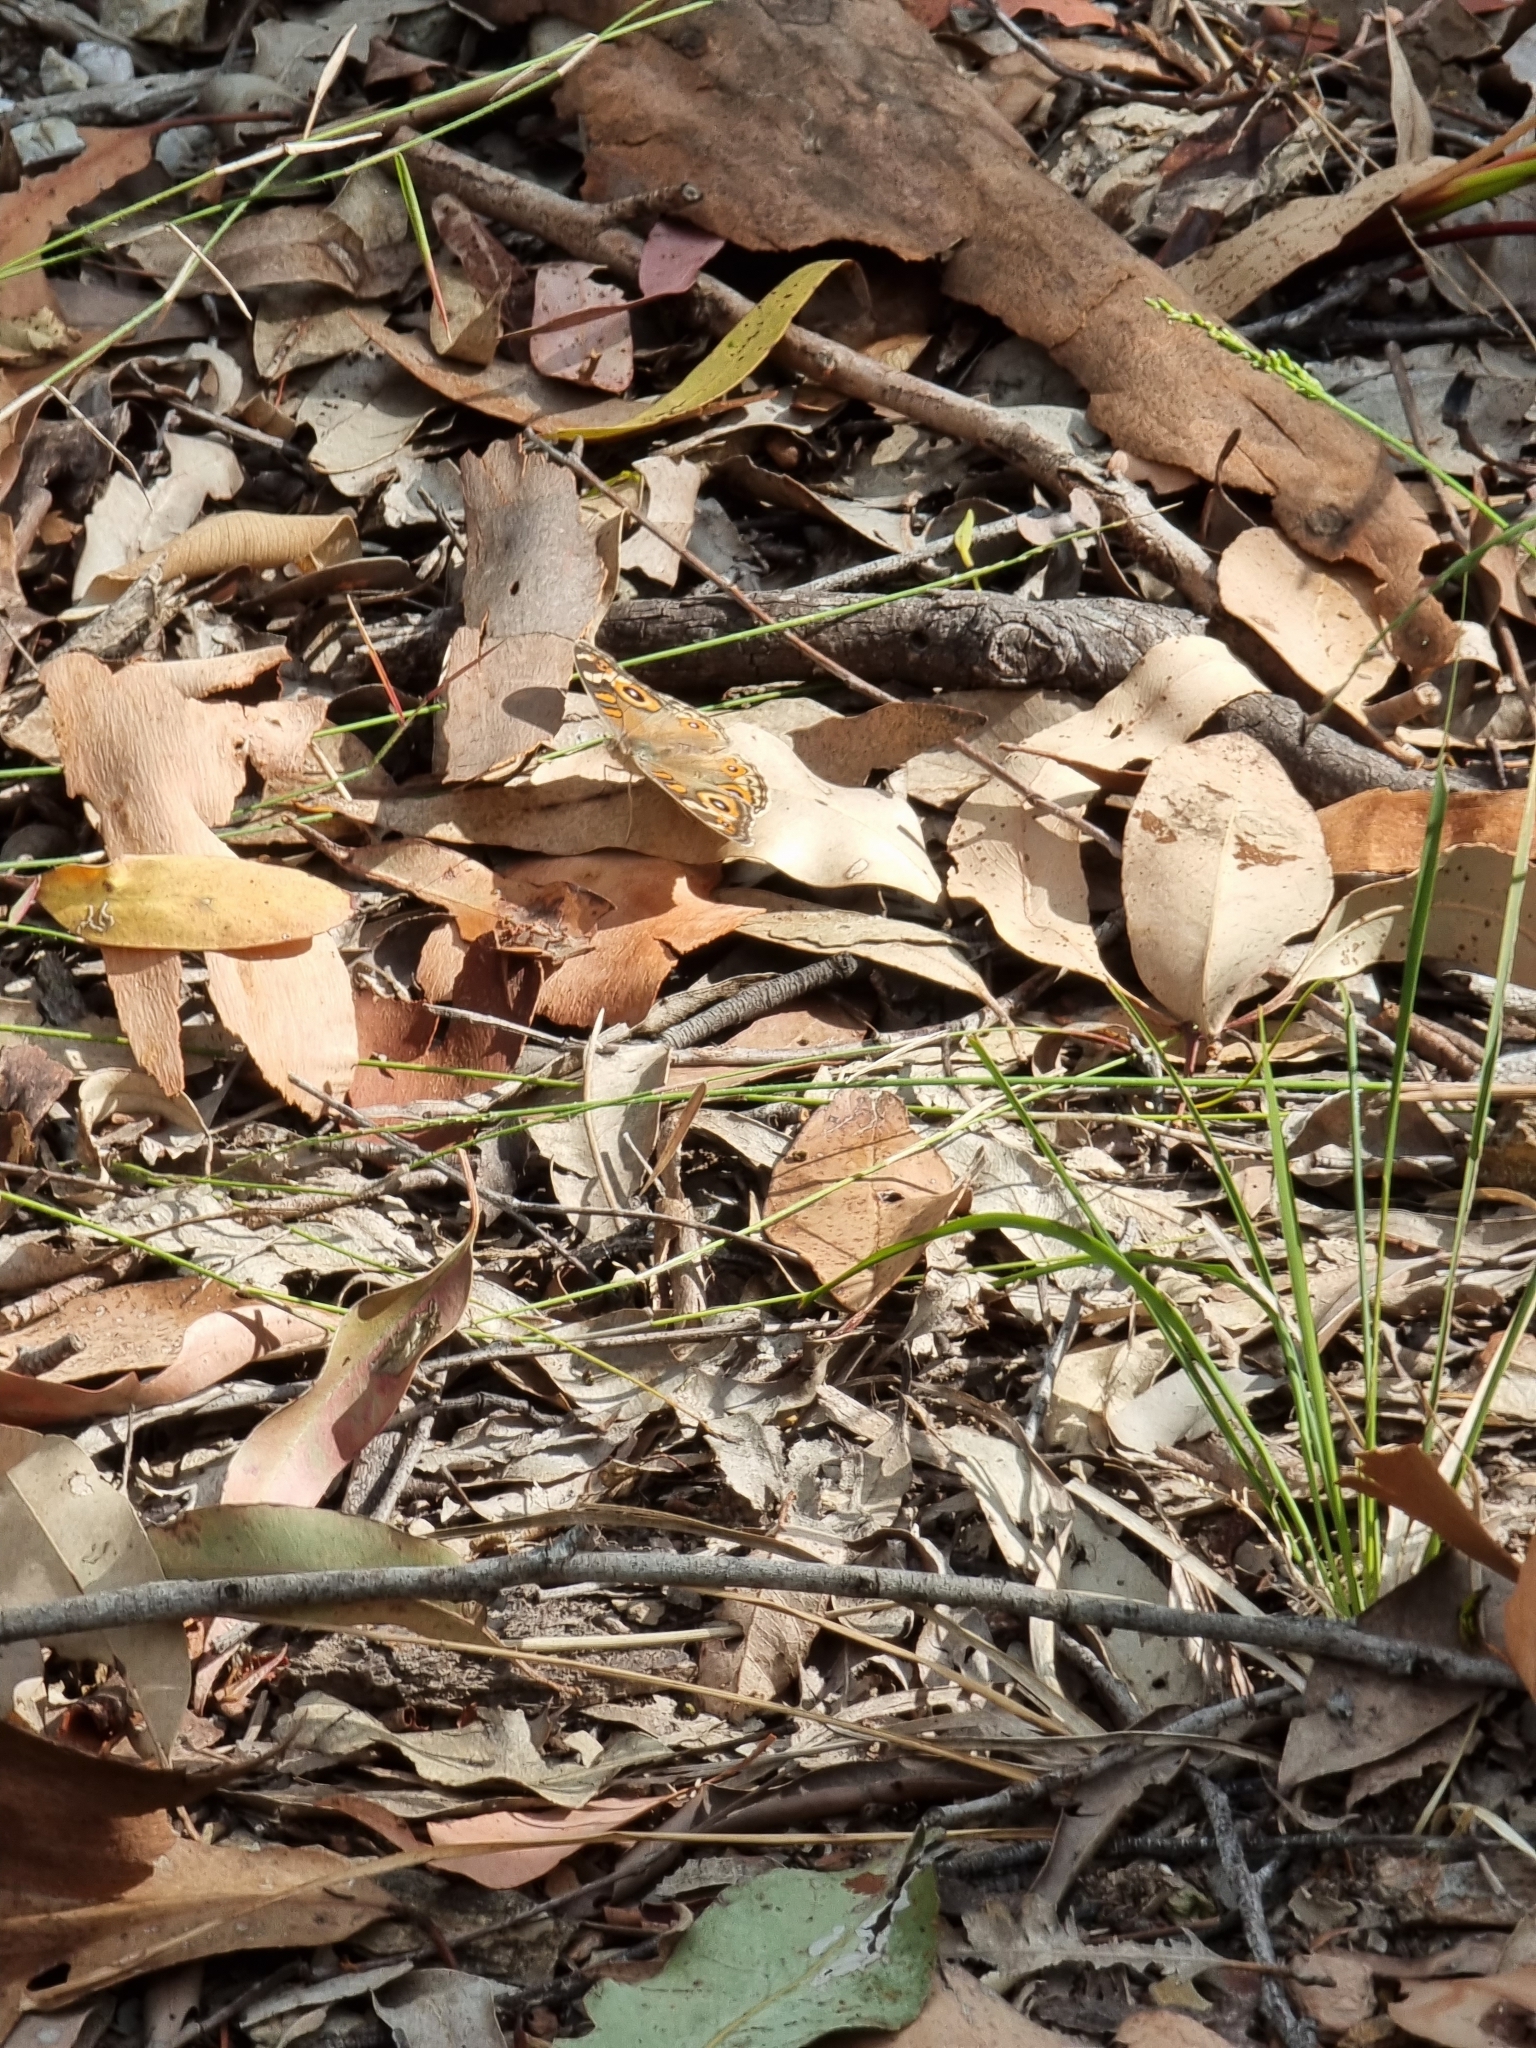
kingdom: Animalia
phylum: Arthropoda
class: Insecta
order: Lepidoptera
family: Nymphalidae
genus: Junonia
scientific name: Junonia villida
